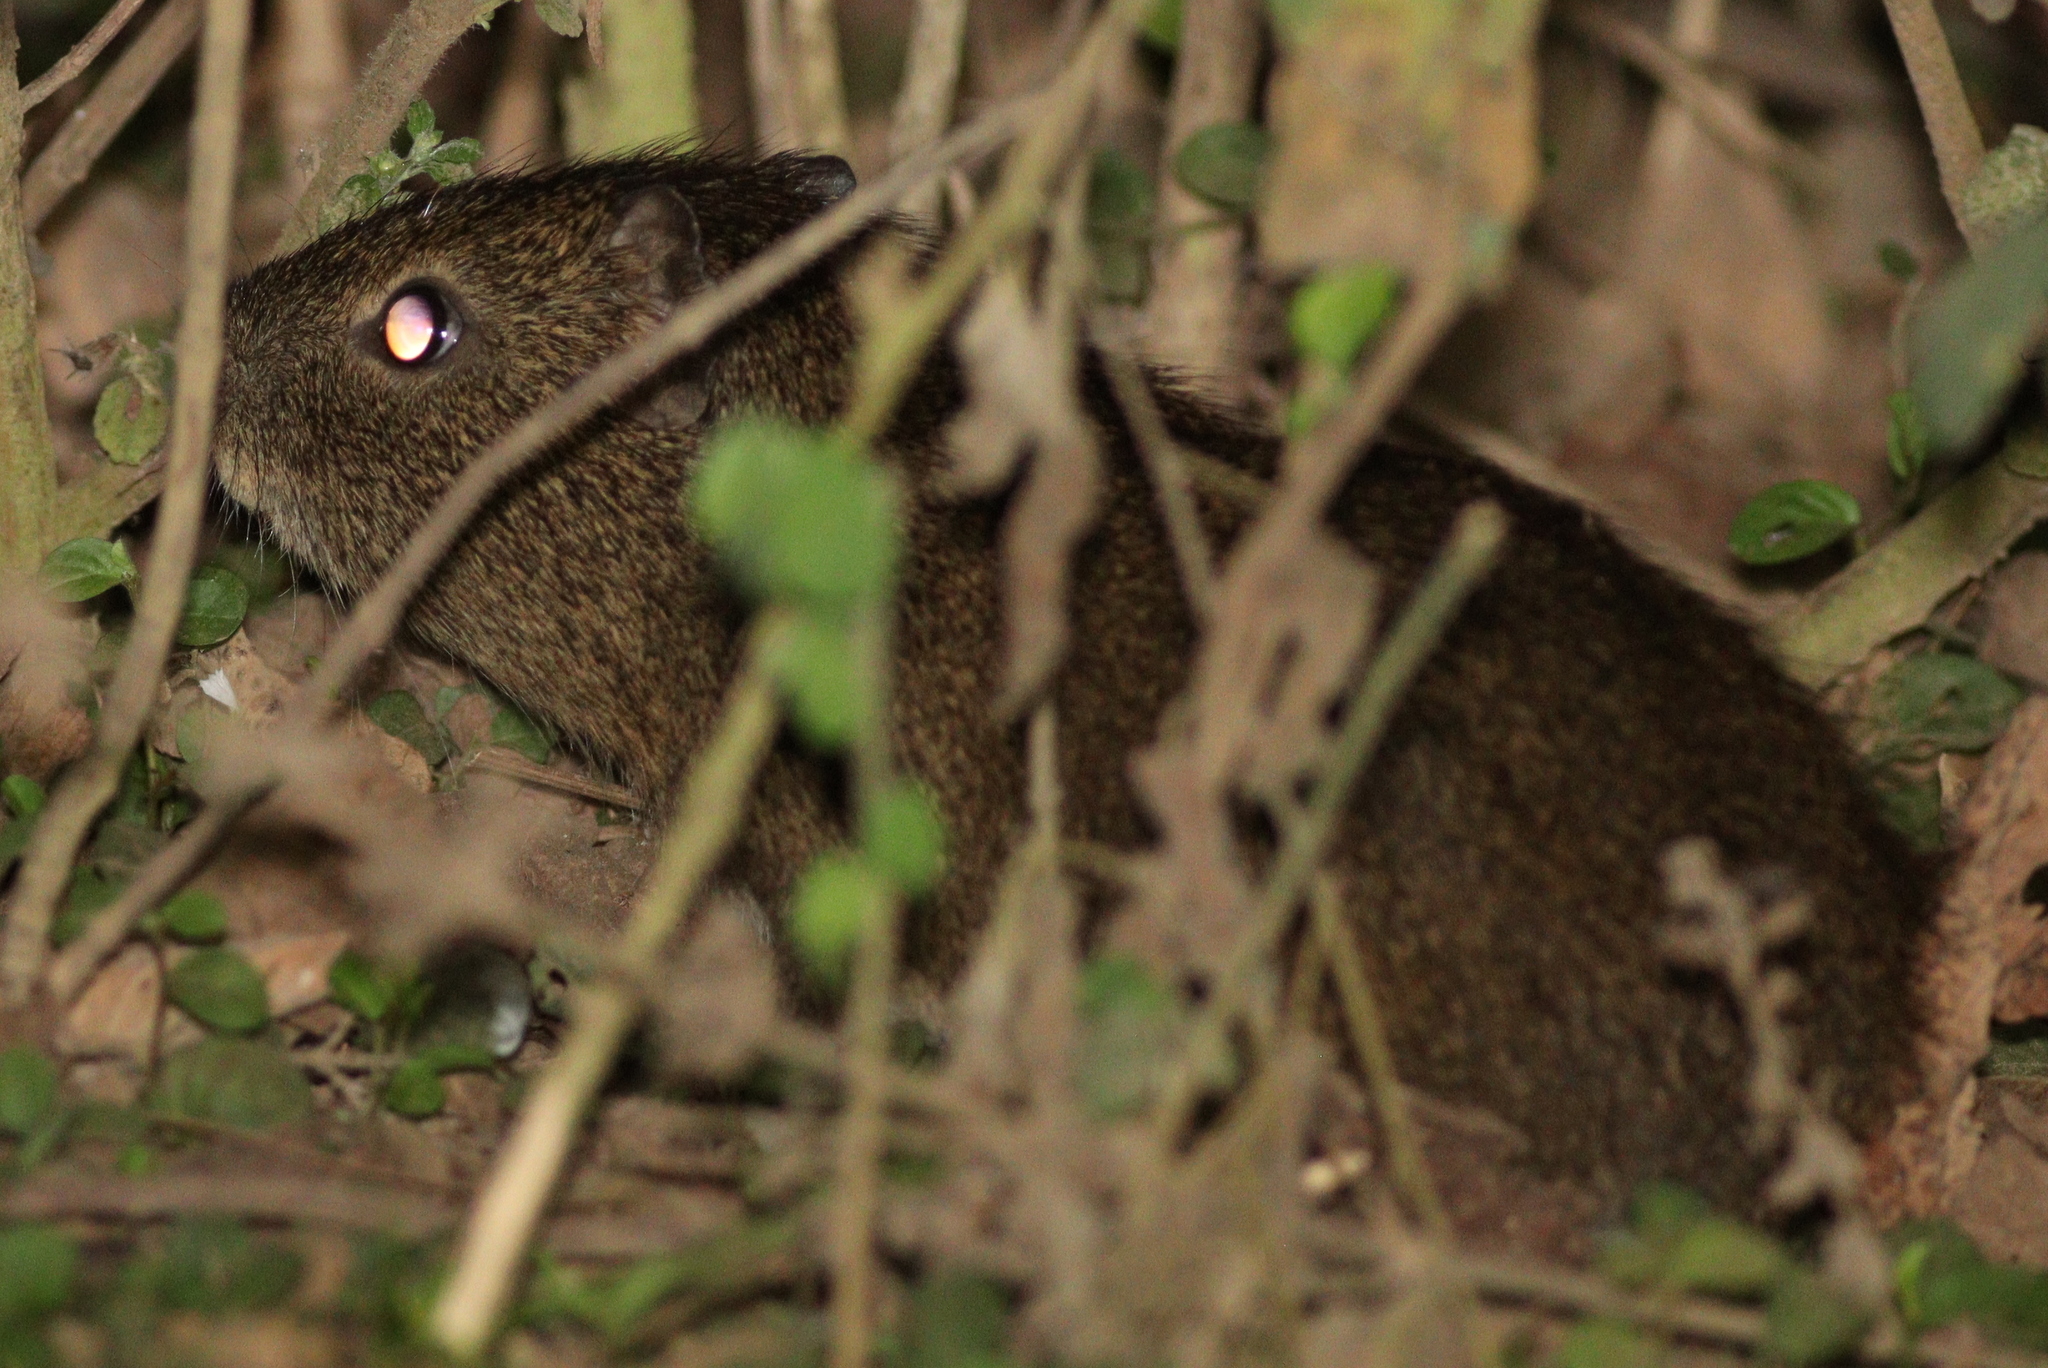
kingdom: Animalia
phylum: Chordata
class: Mammalia
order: Rodentia
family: Caviidae
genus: Cavia
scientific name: Cavia aperea
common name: Brazilian guinea pig
